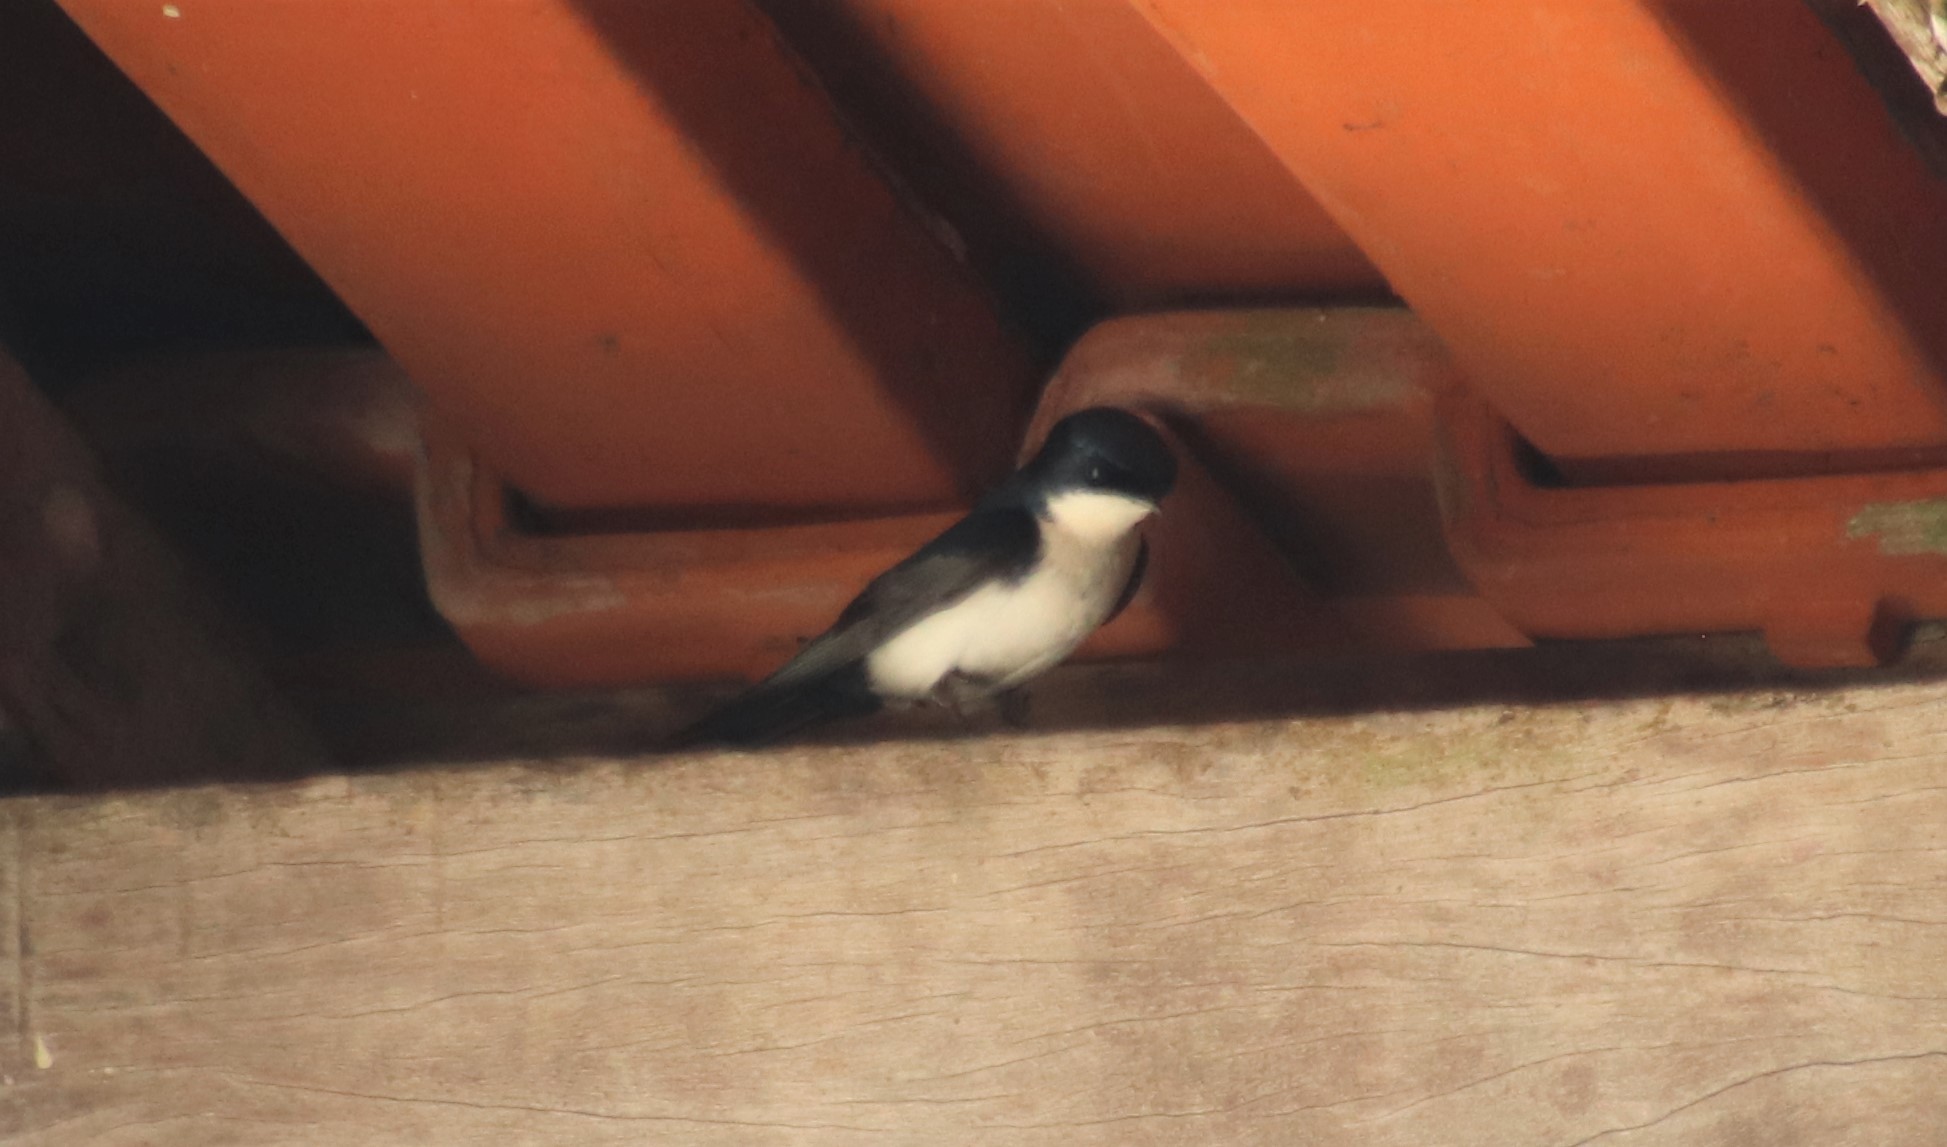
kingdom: Animalia
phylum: Chordata
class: Aves
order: Passeriformes
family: Hirundinidae
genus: Notiochelidon
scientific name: Notiochelidon cyanoleuca
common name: Blue-and-white swallow
